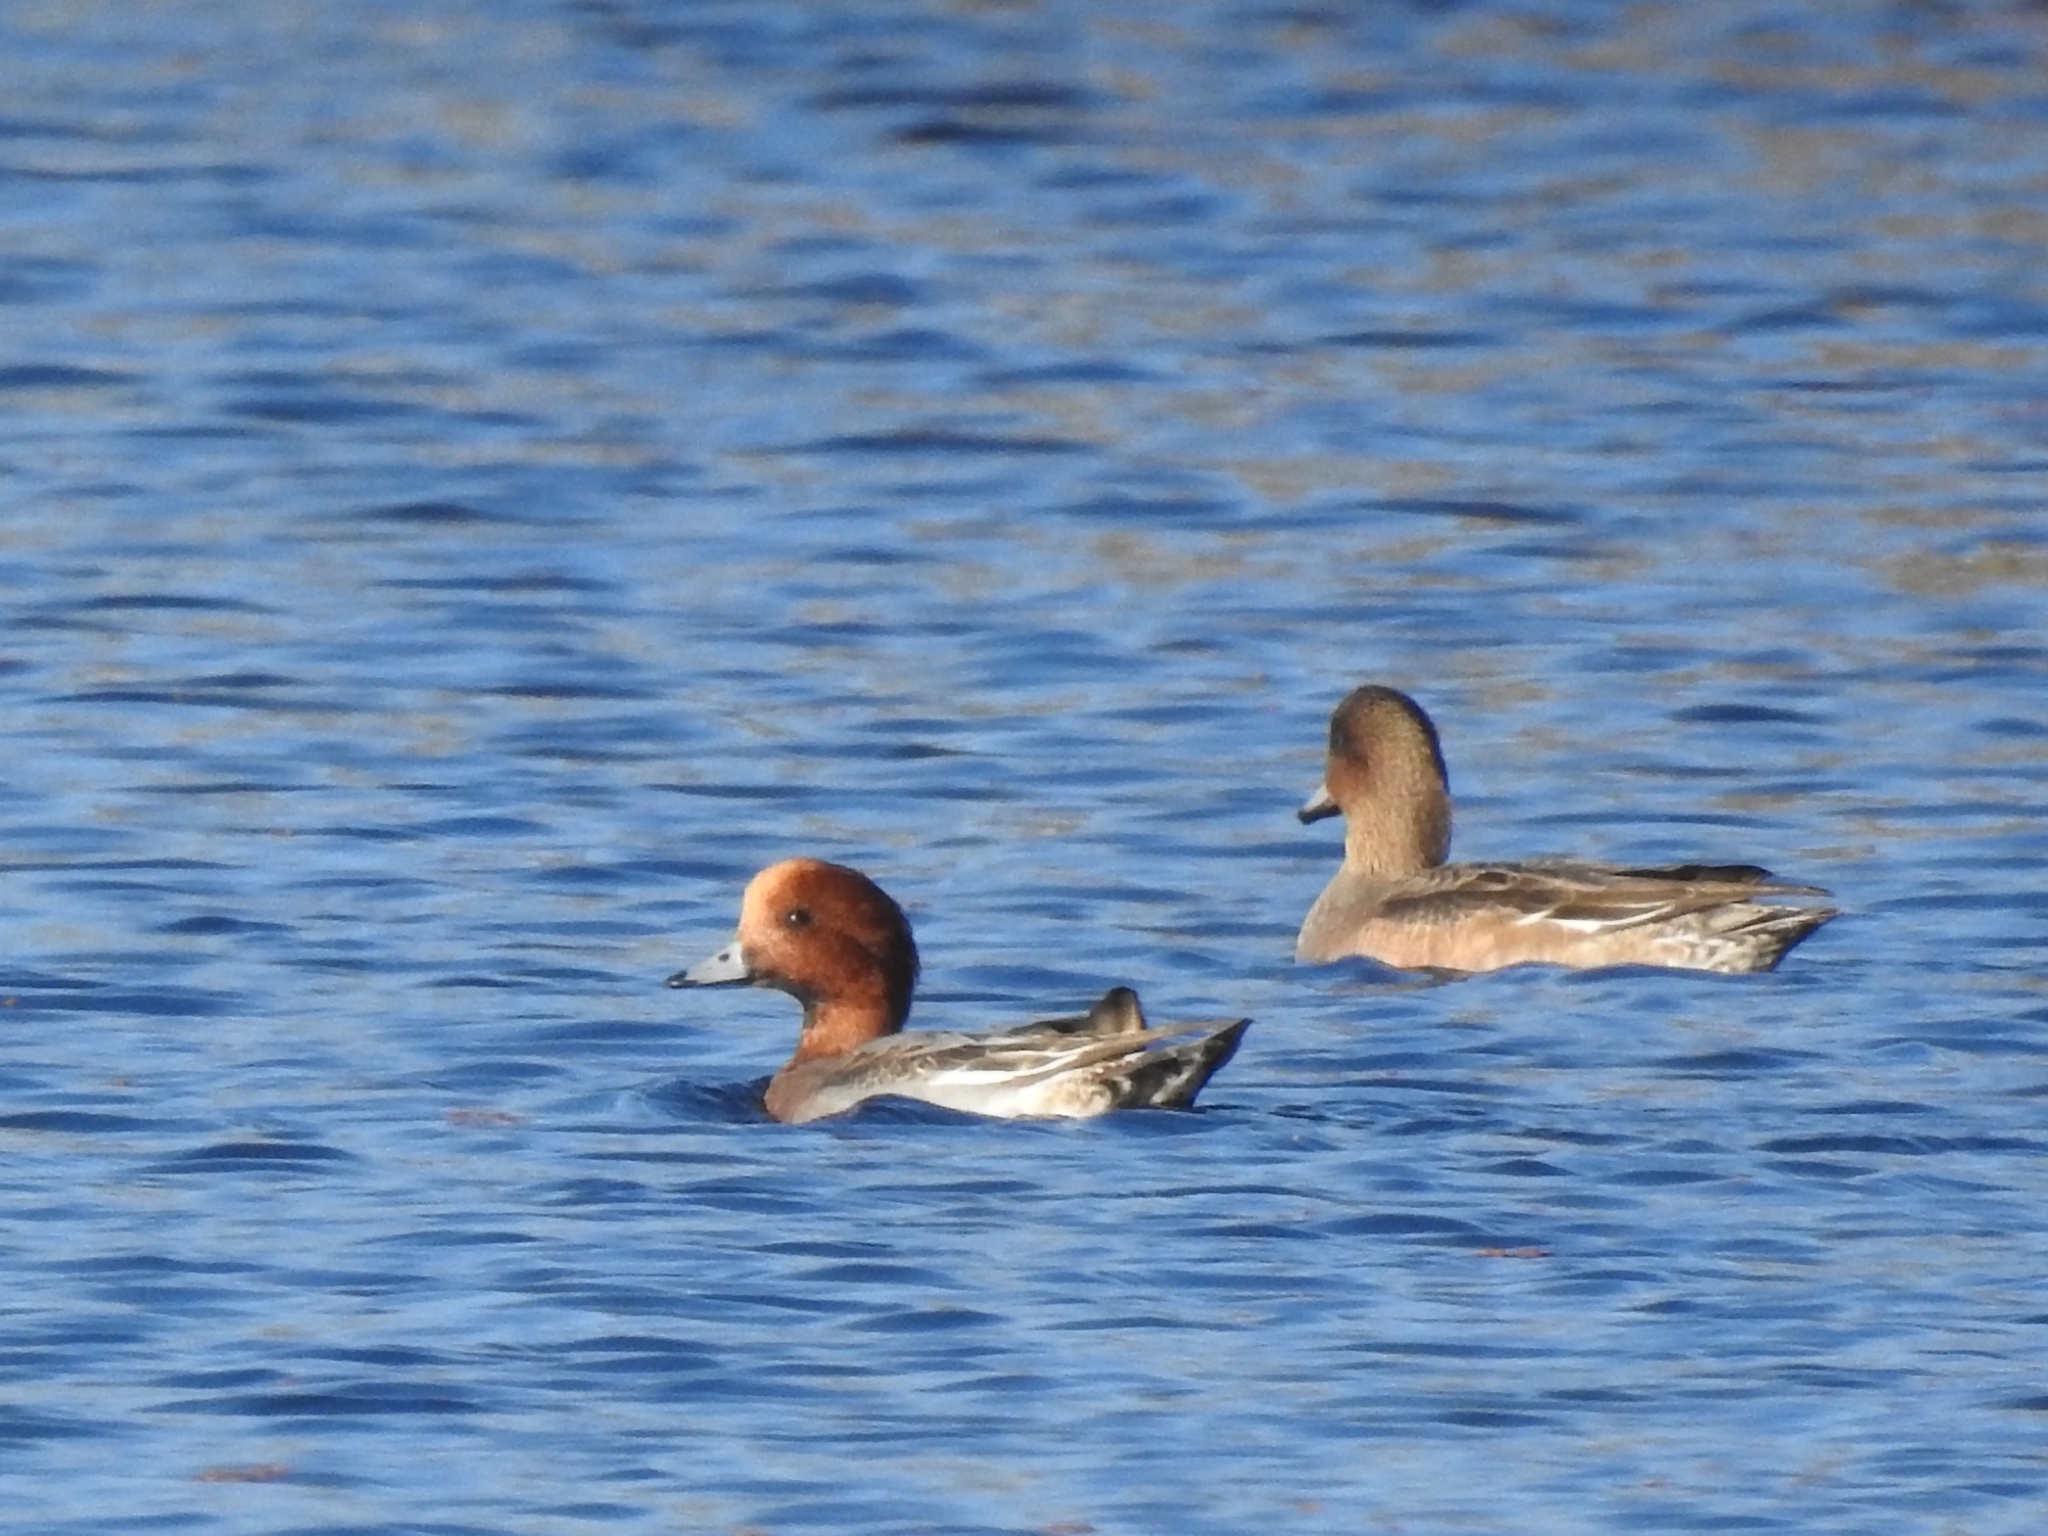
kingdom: Animalia
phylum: Chordata
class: Aves
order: Anseriformes
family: Anatidae
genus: Mareca
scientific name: Mareca penelope
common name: Eurasian wigeon
